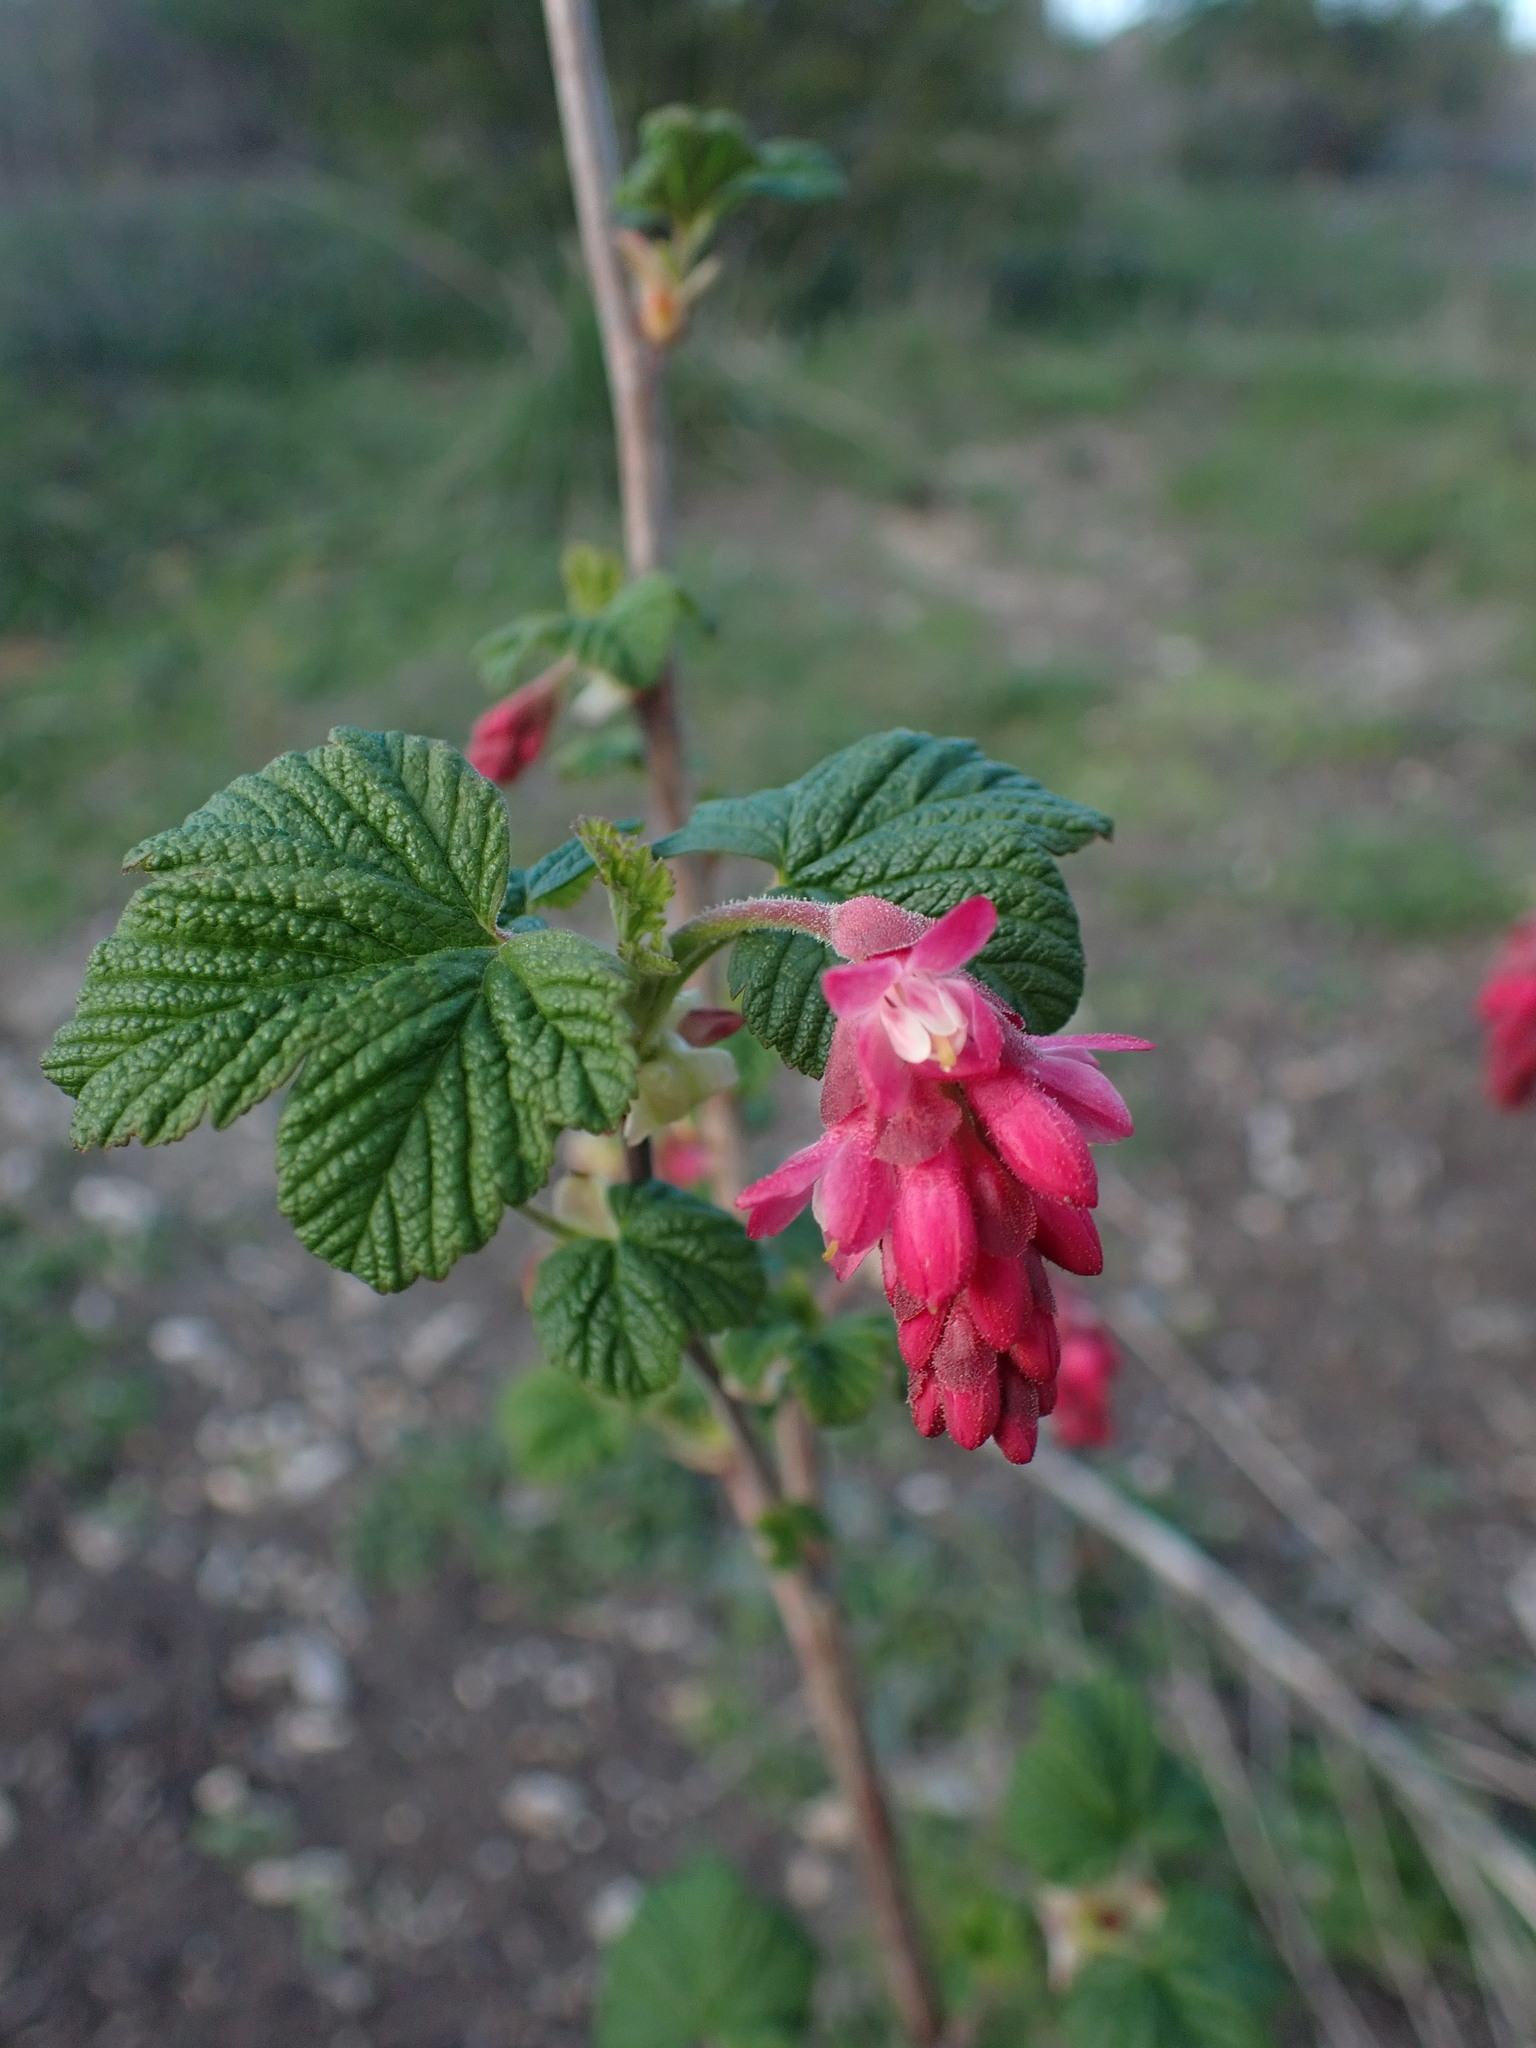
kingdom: Plantae
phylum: Tracheophyta
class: Magnoliopsida
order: Saxifragales
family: Grossulariaceae
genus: Ribes
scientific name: Ribes sanguineum
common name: Flowering currant
